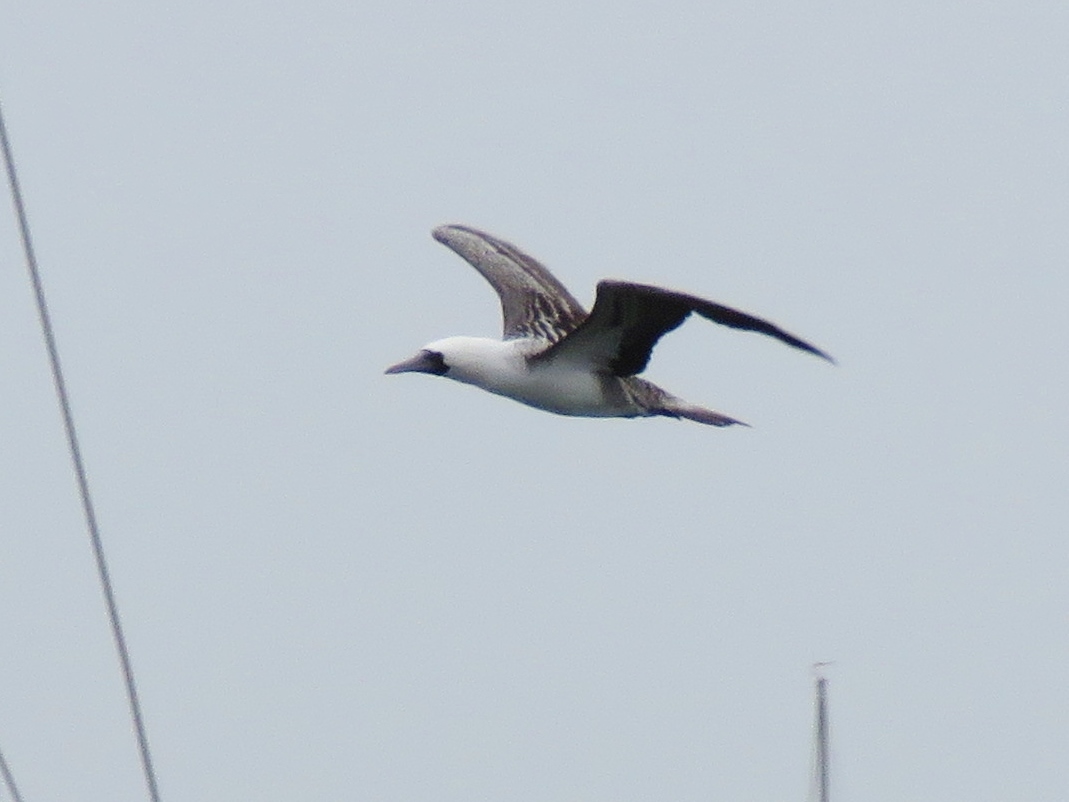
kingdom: Animalia
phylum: Chordata
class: Aves
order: Suliformes
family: Sulidae
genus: Sula
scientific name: Sula variegata
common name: Peruvian booby
